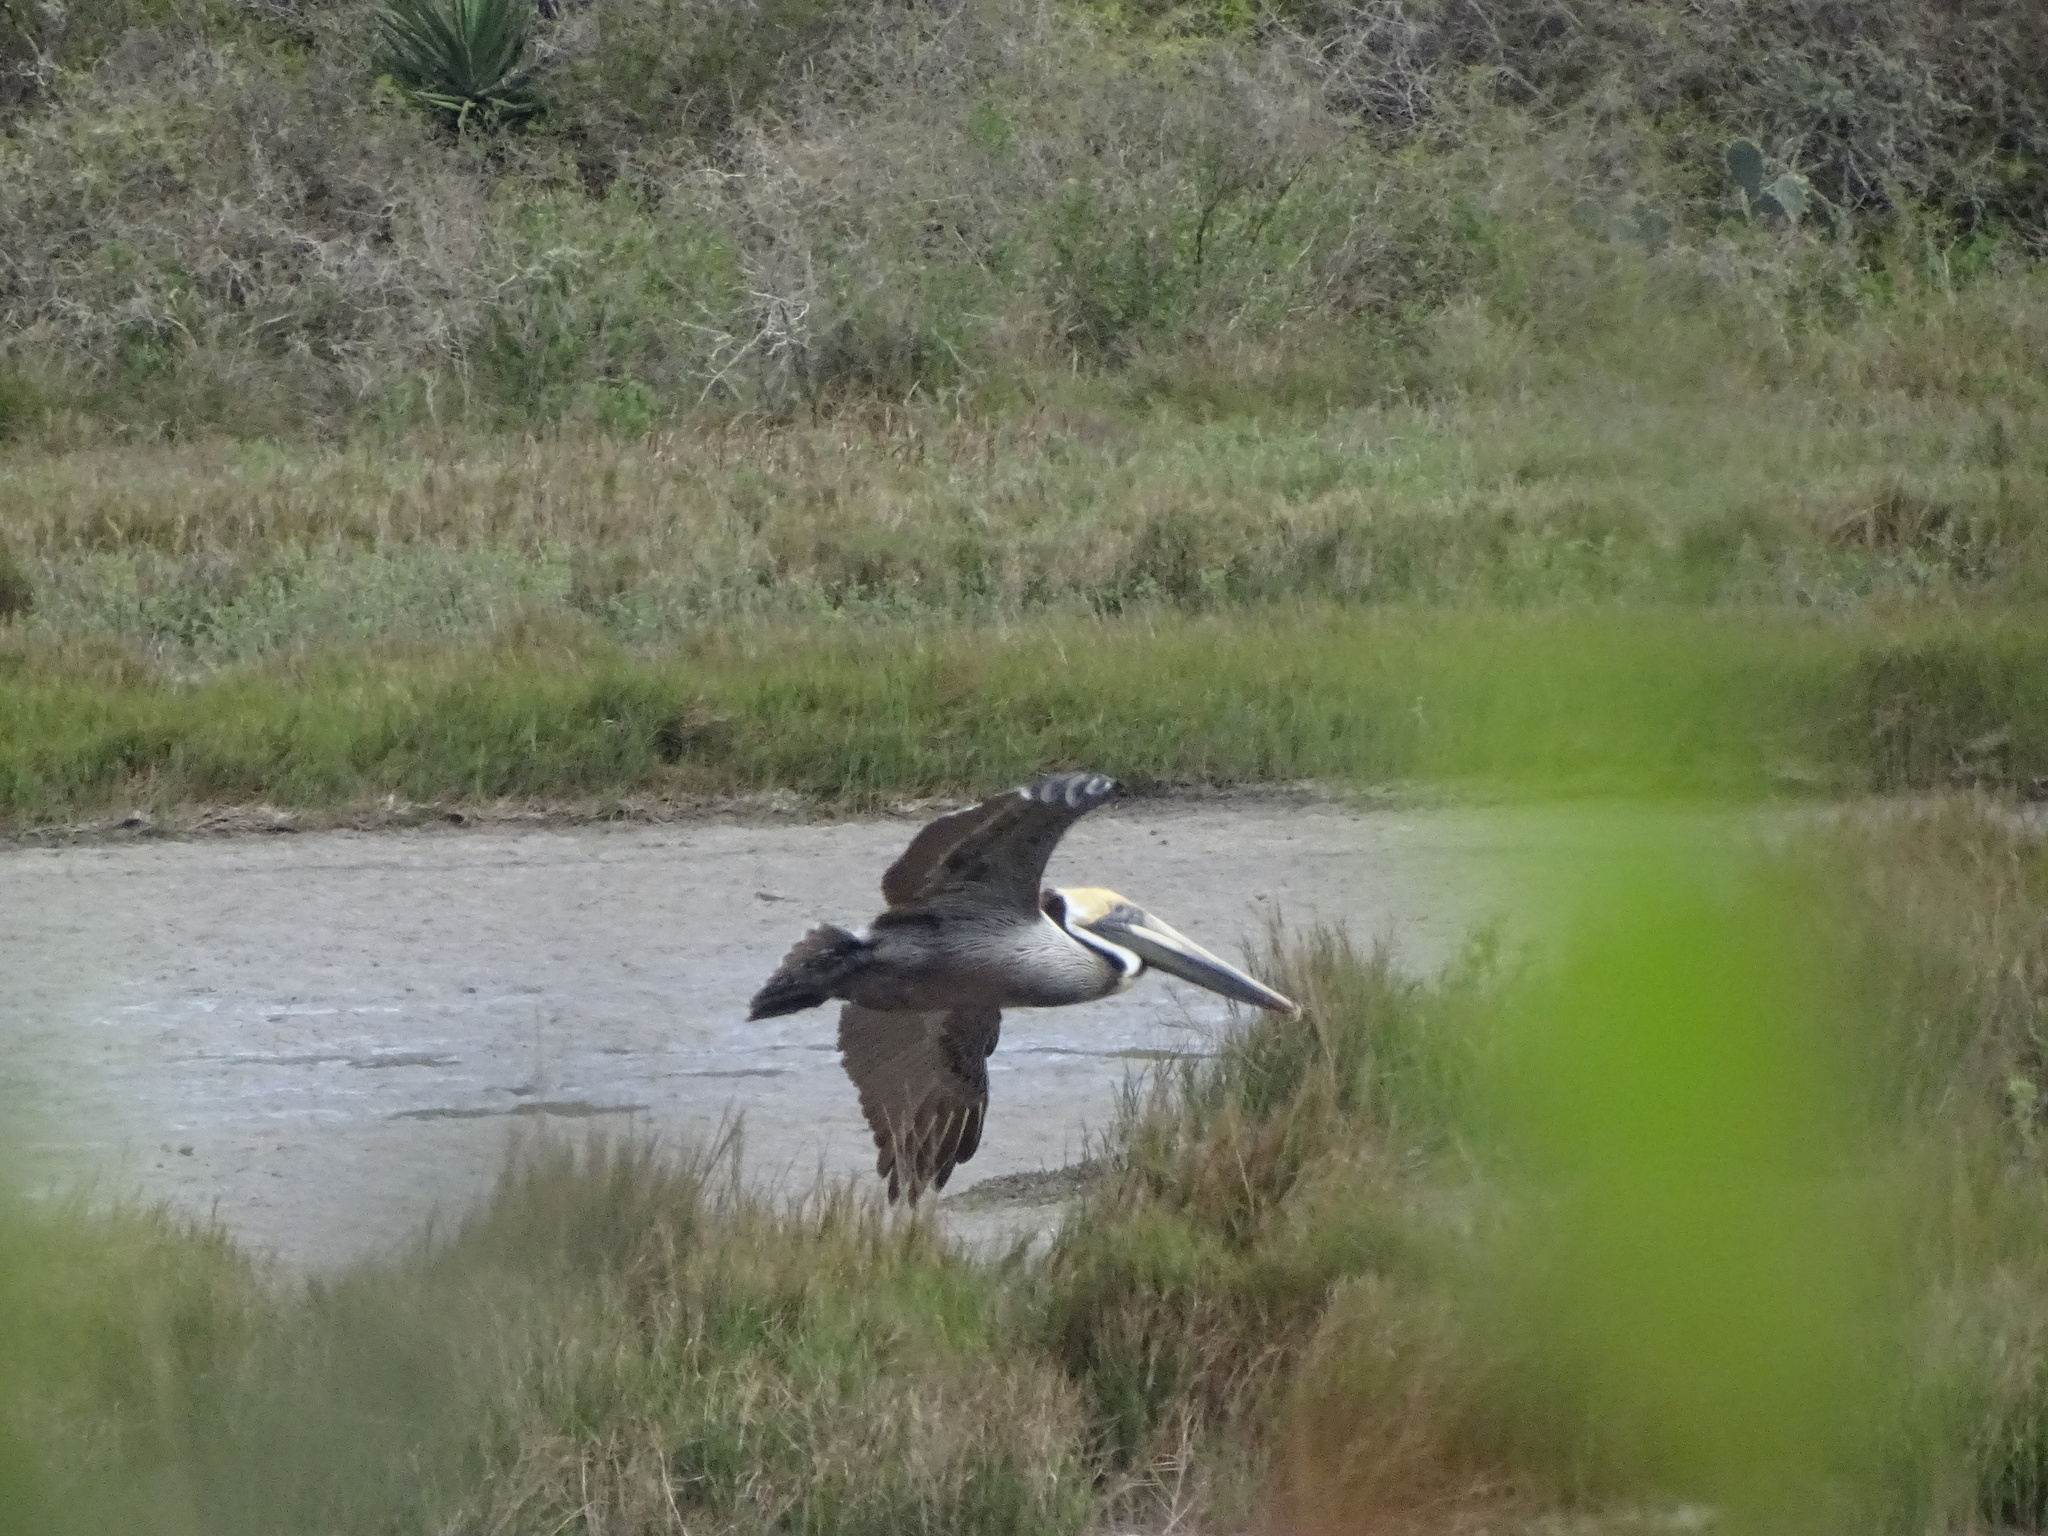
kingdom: Animalia
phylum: Chordata
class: Aves
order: Pelecaniformes
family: Pelecanidae
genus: Pelecanus
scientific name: Pelecanus occidentalis
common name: Brown pelican
